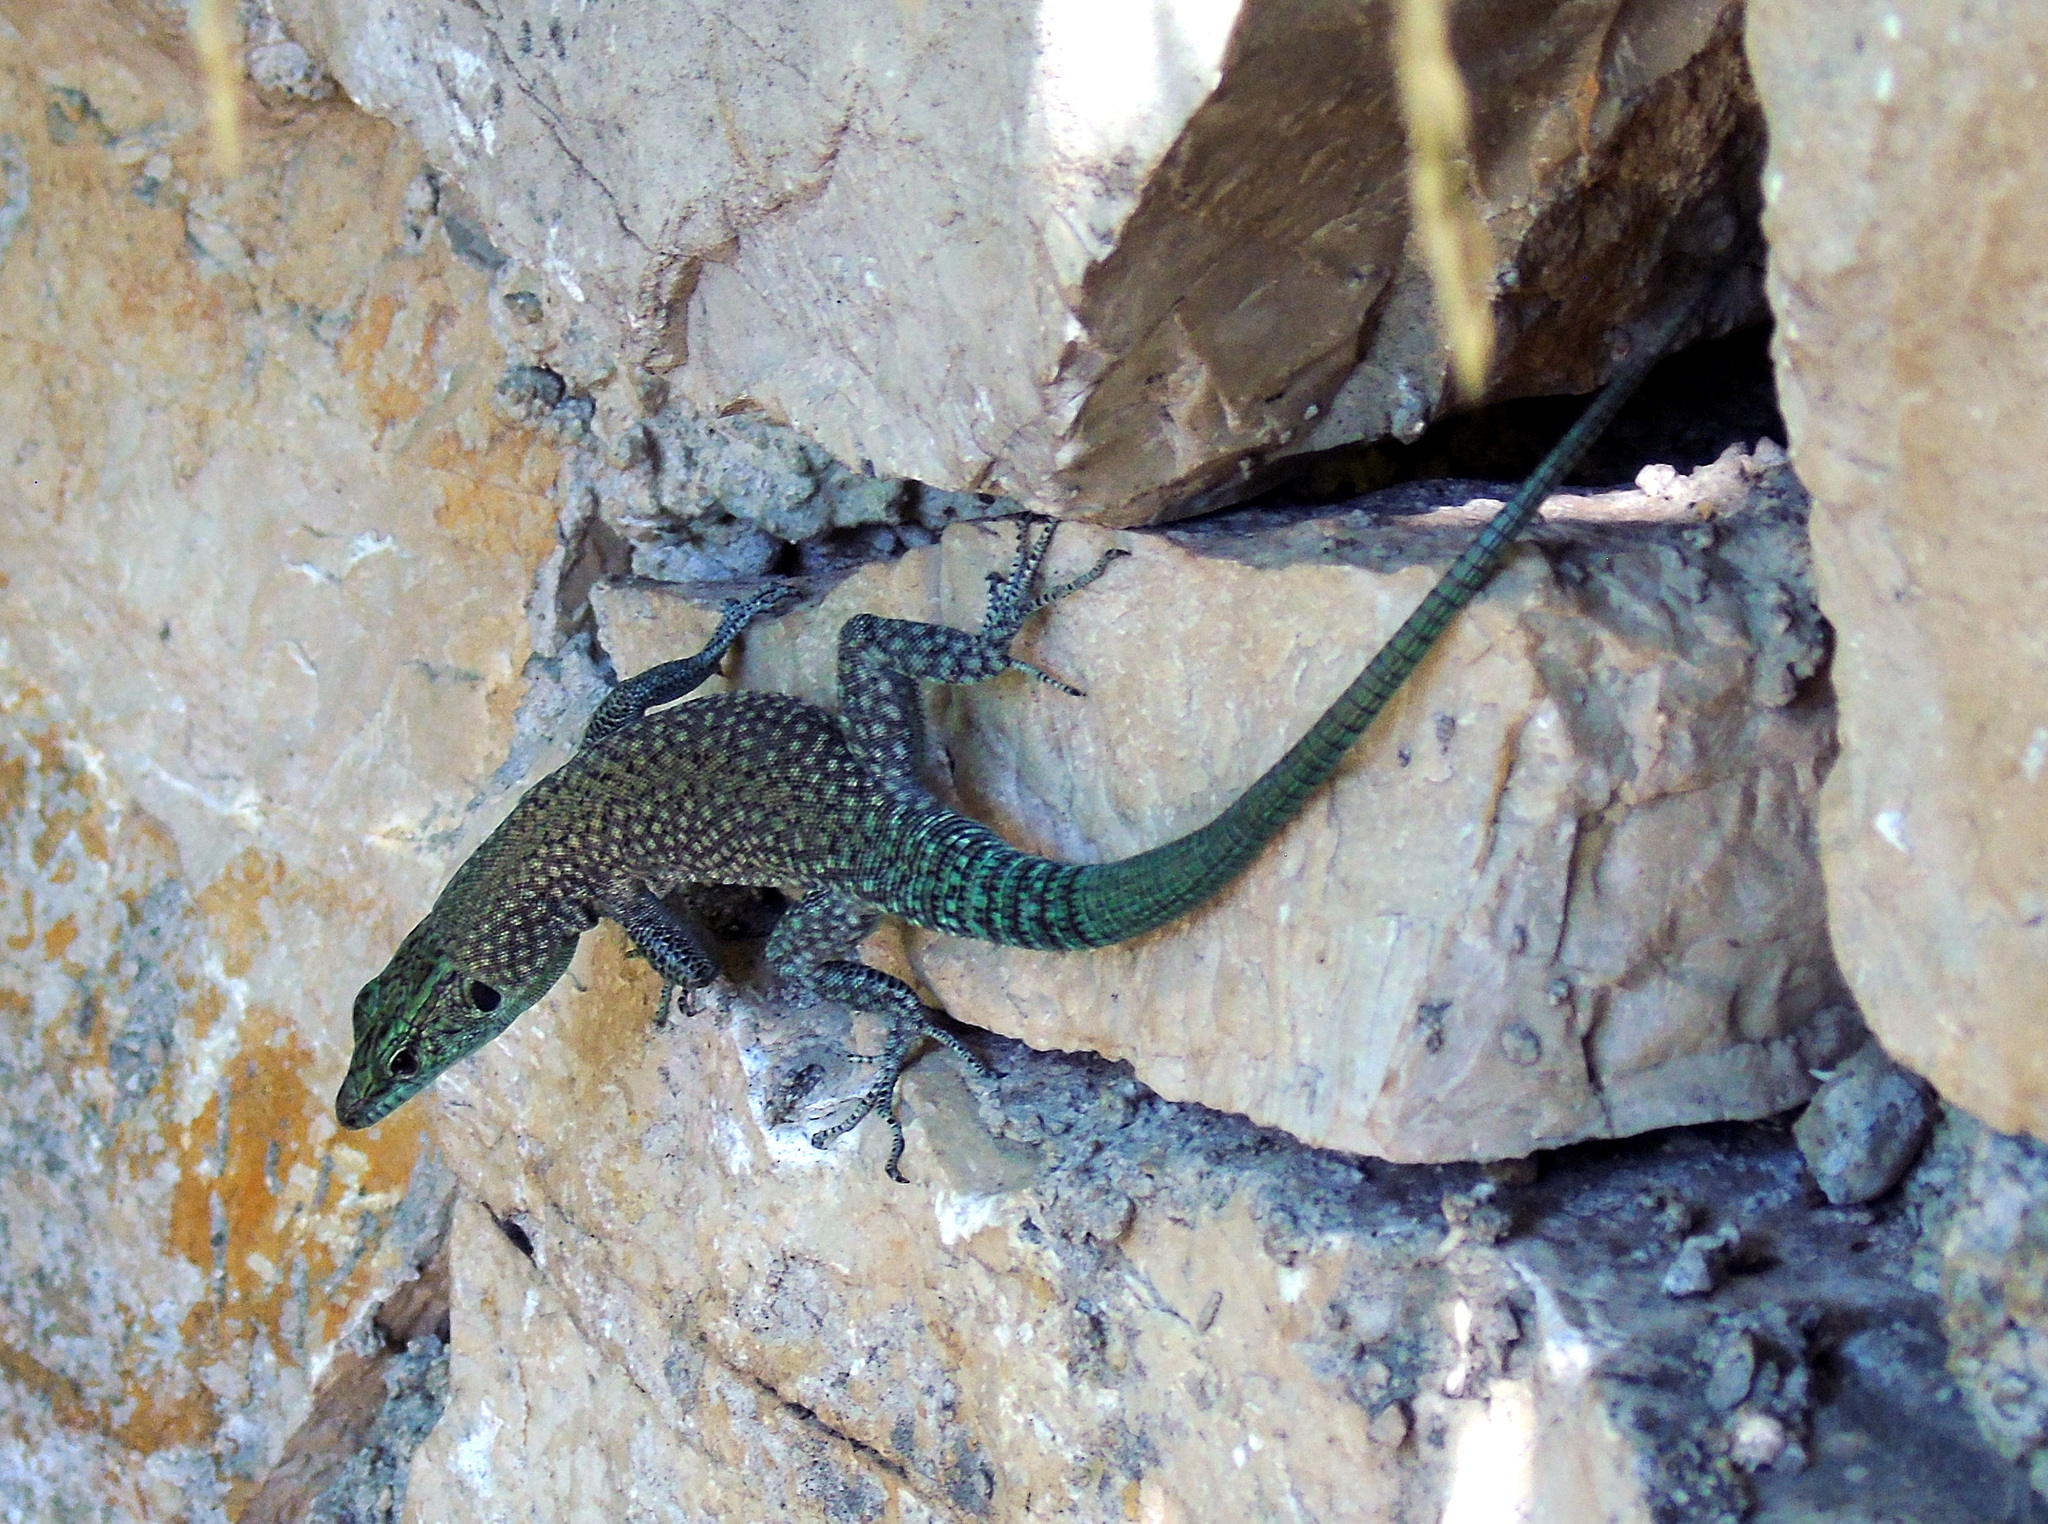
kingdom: Animalia
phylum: Chordata
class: Squamata
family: Lacertidae
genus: Dalmatolacerta
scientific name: Dalmatolacerta oxycephala
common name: Sharp-snouted rock lizard
